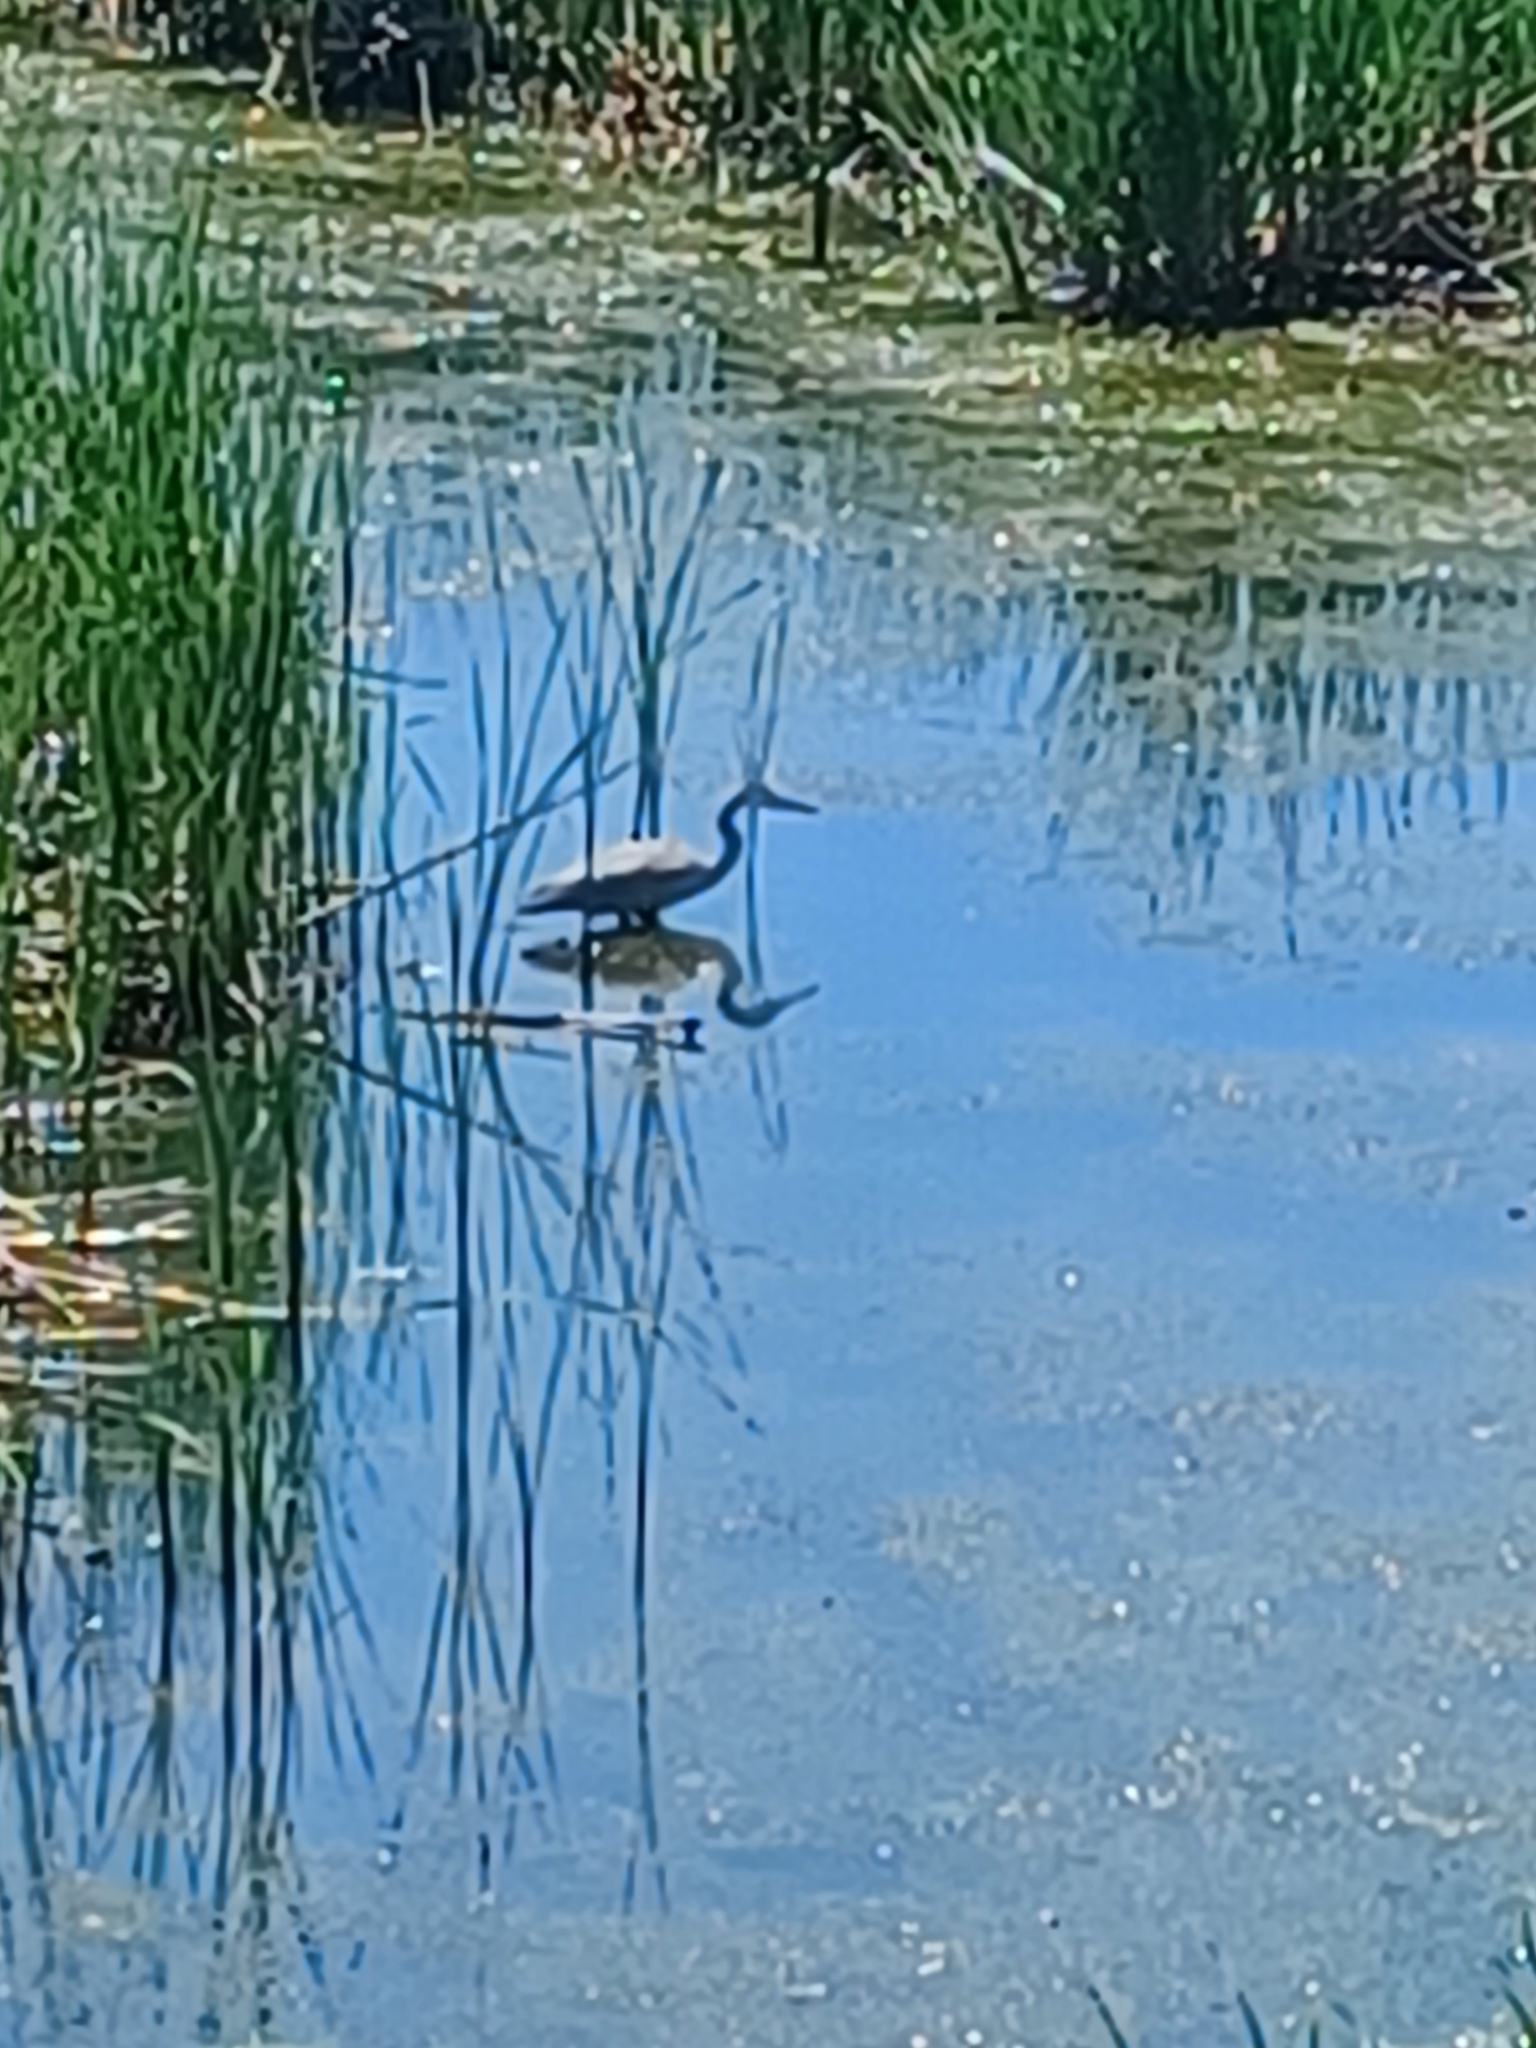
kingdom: Animalia
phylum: Chordata
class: Aves
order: Pelecaniformes
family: Ardeidae
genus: Ardea
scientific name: Ardea herodias
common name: Great blue heron
